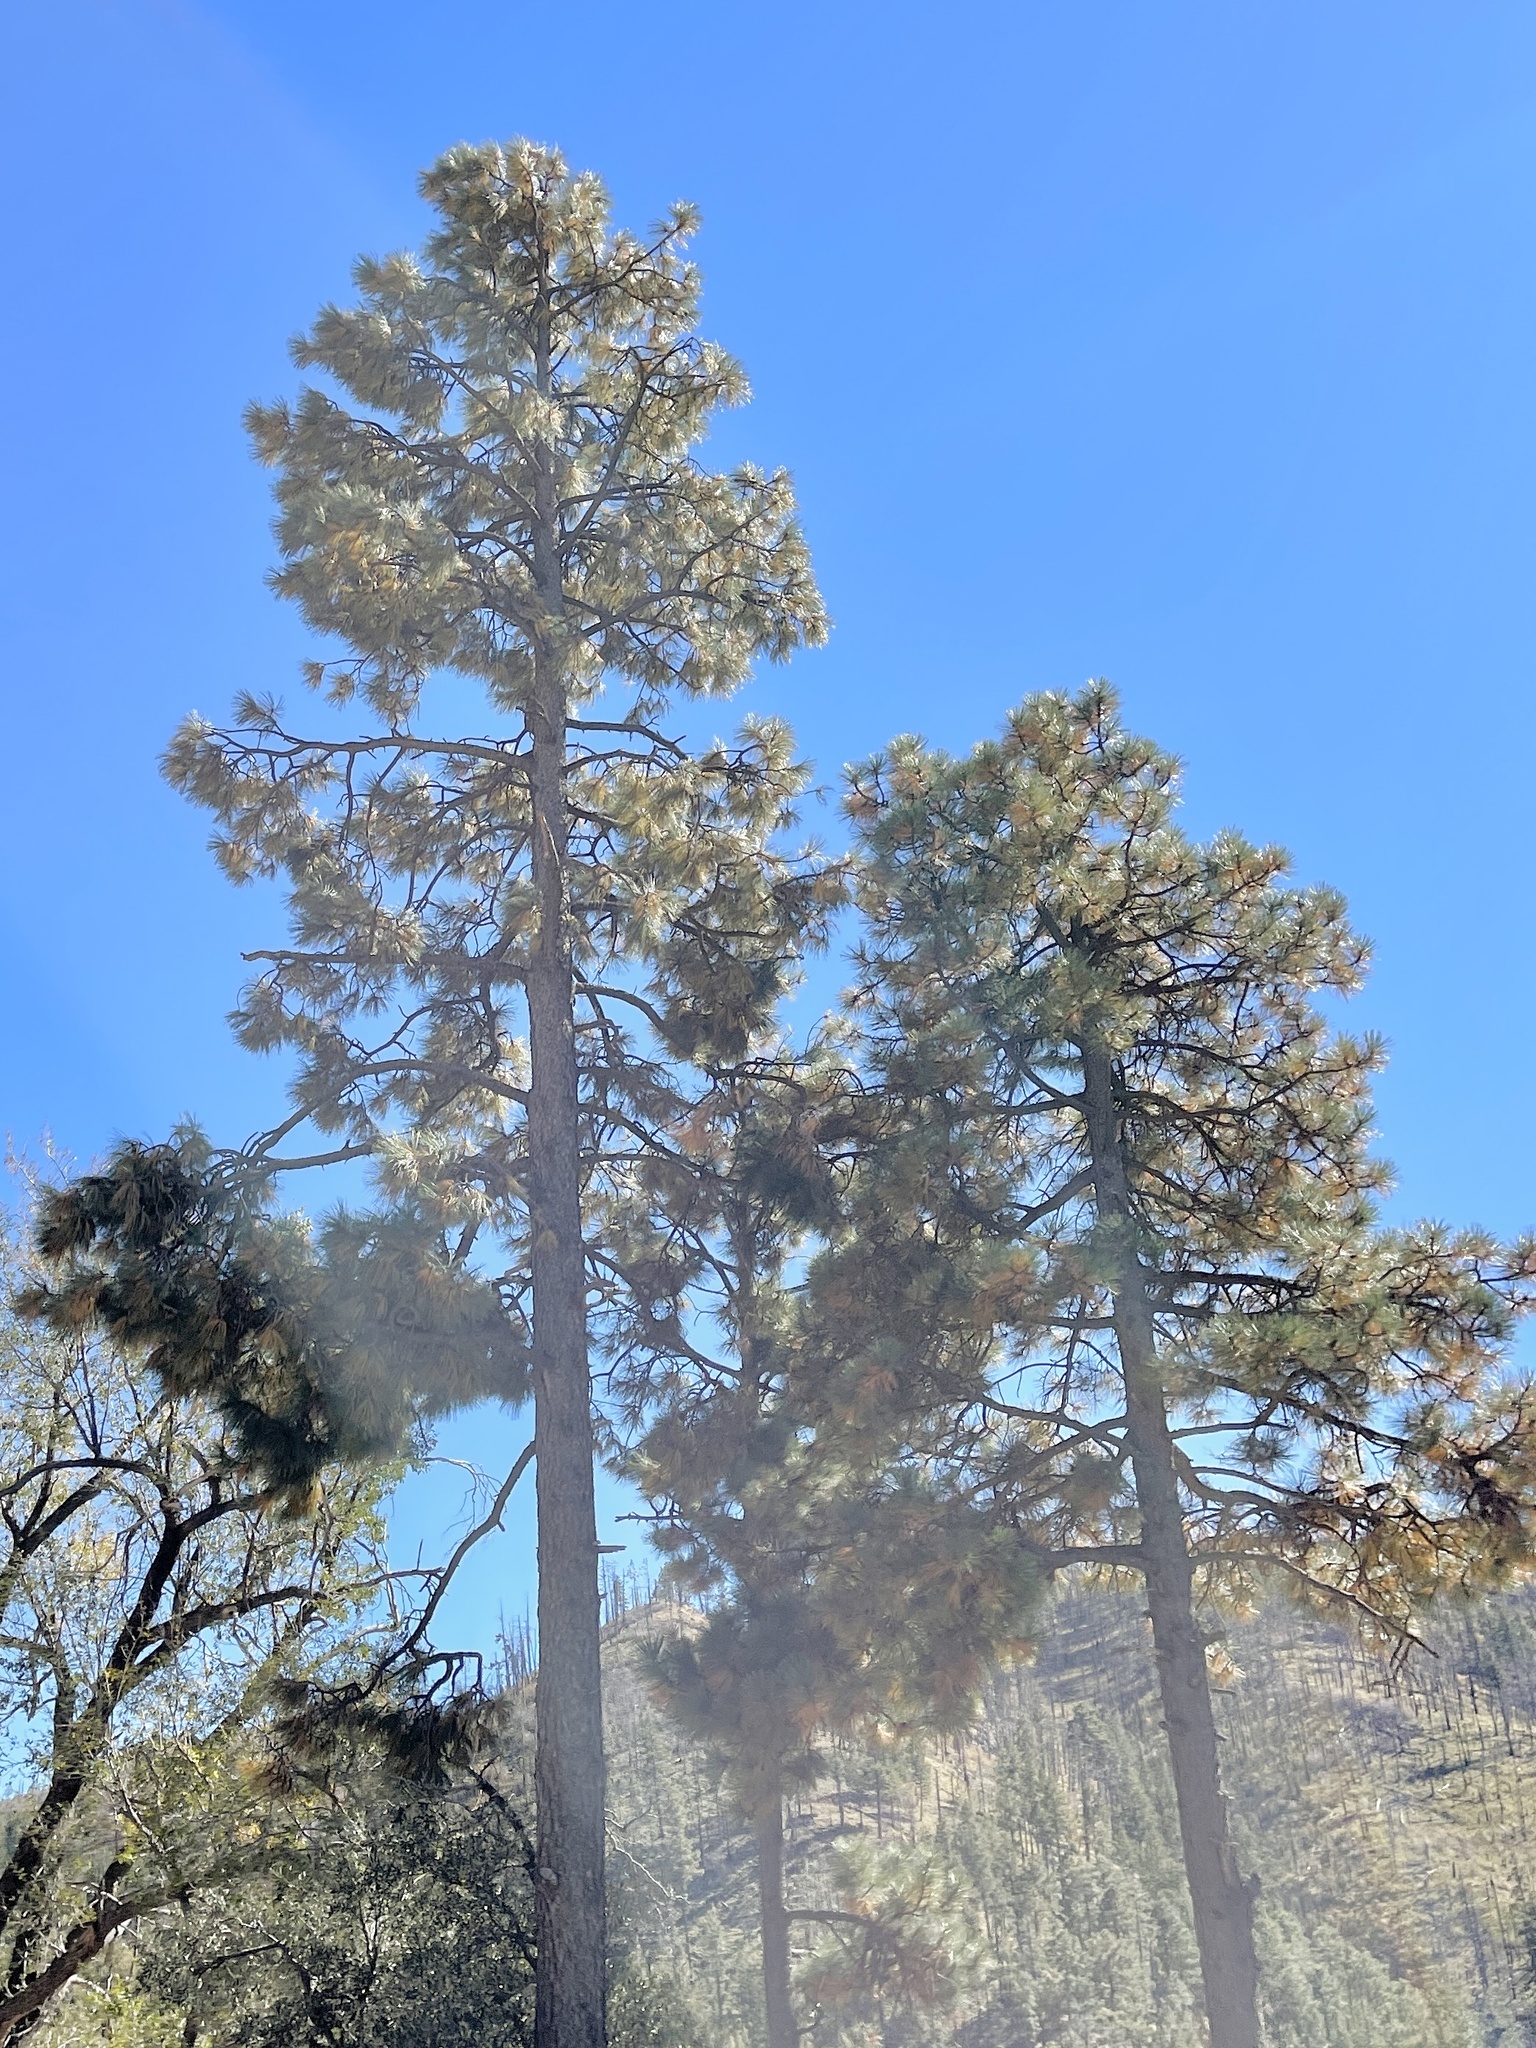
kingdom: Plantae
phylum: Tracheophyta
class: Pinopsida
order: Pinales
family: Pinaceae
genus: Pinus
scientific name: Pinus ponderosa
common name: Western yellow-pine
